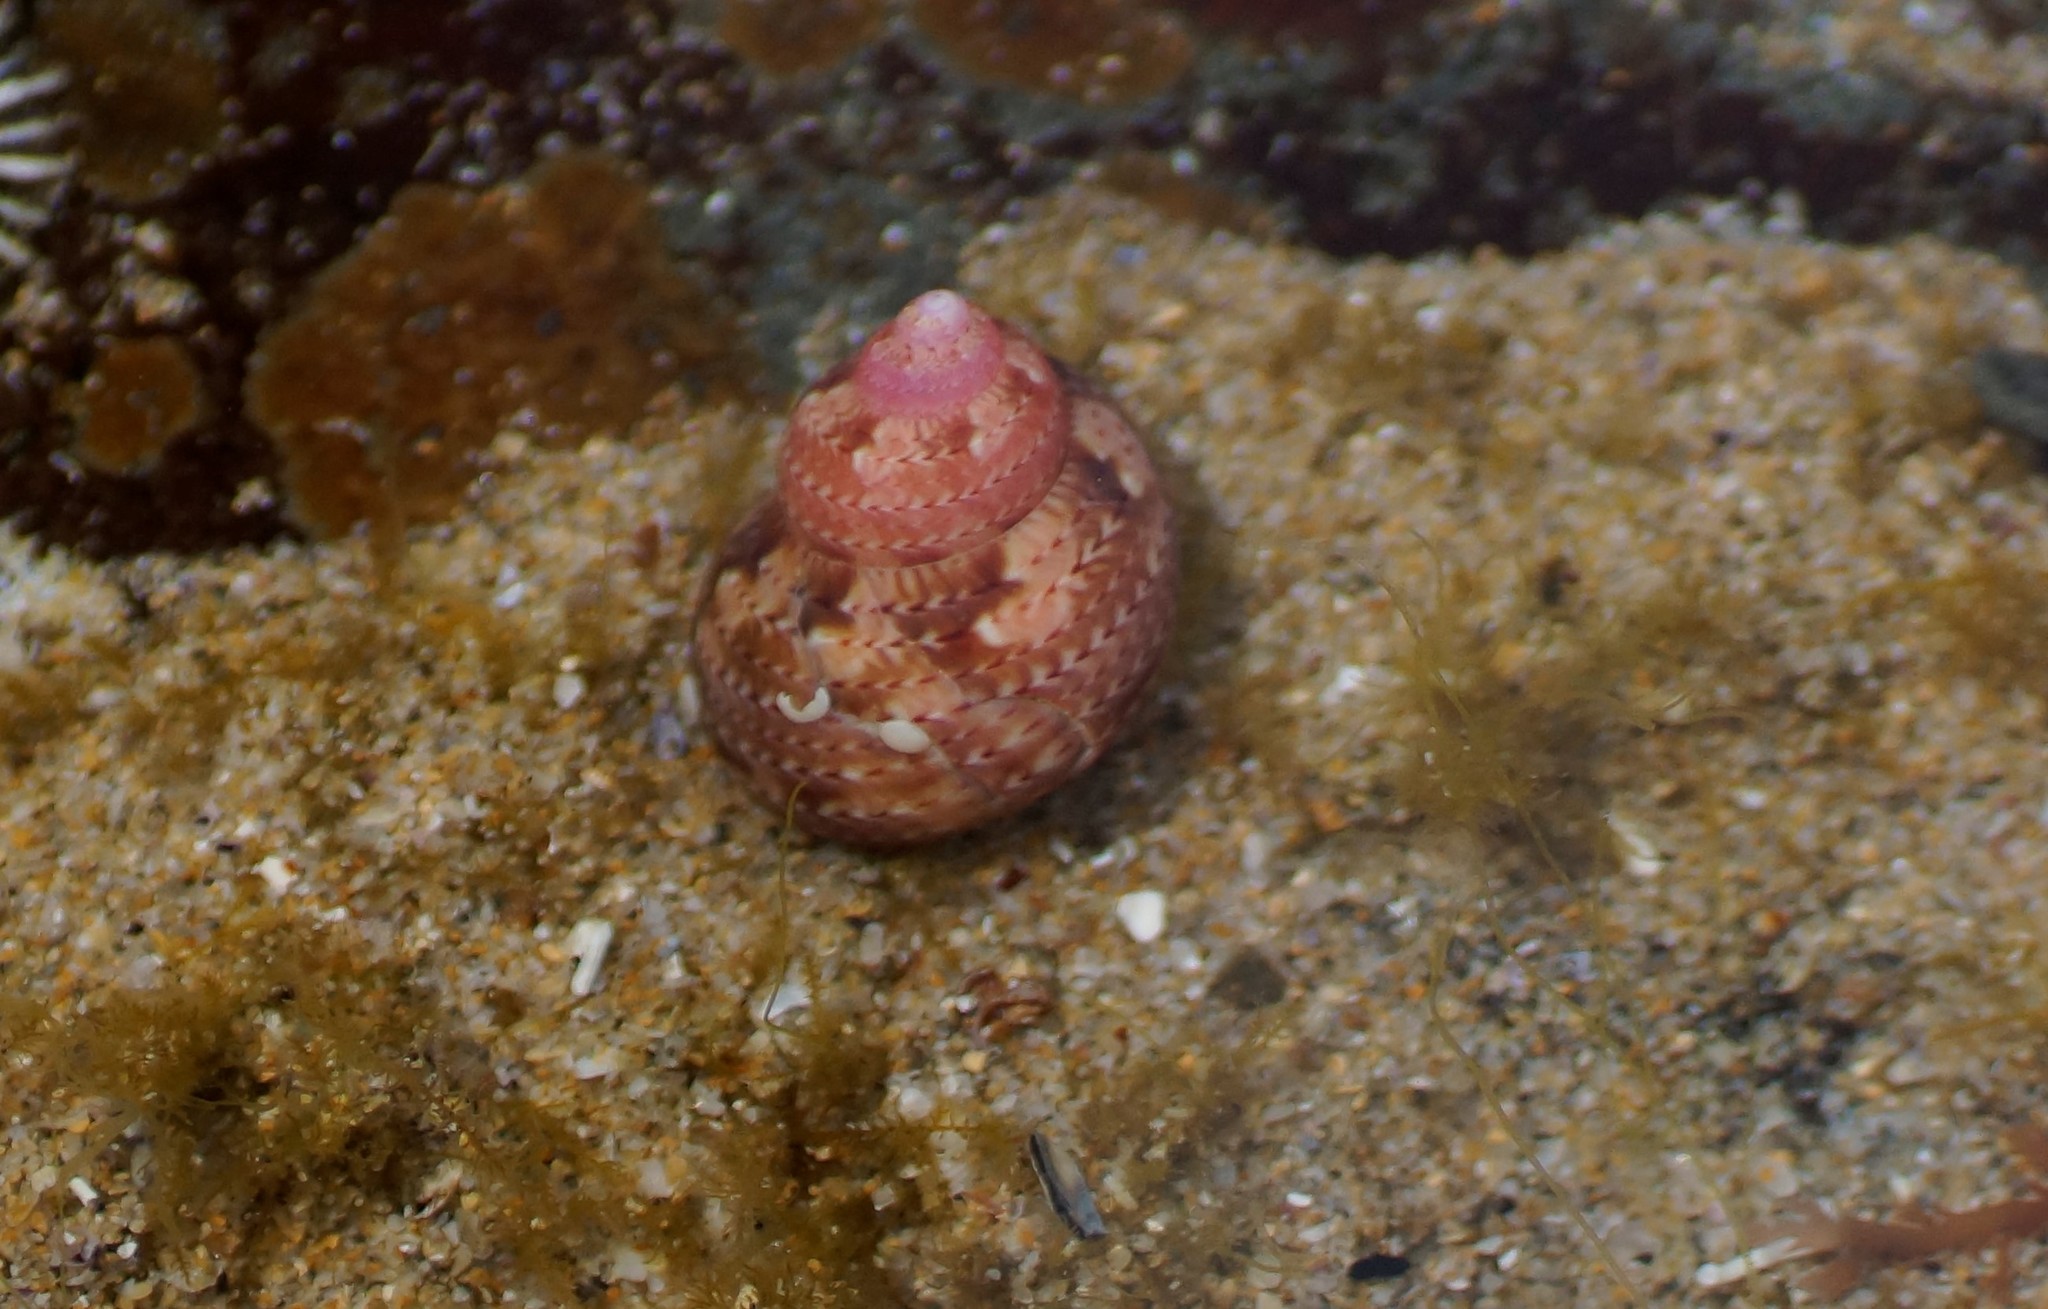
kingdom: Animalia
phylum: Mollusca
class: Gastropoda
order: Trochida
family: Phasianellidae
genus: Phasianella
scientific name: Phasianella ventricosa
